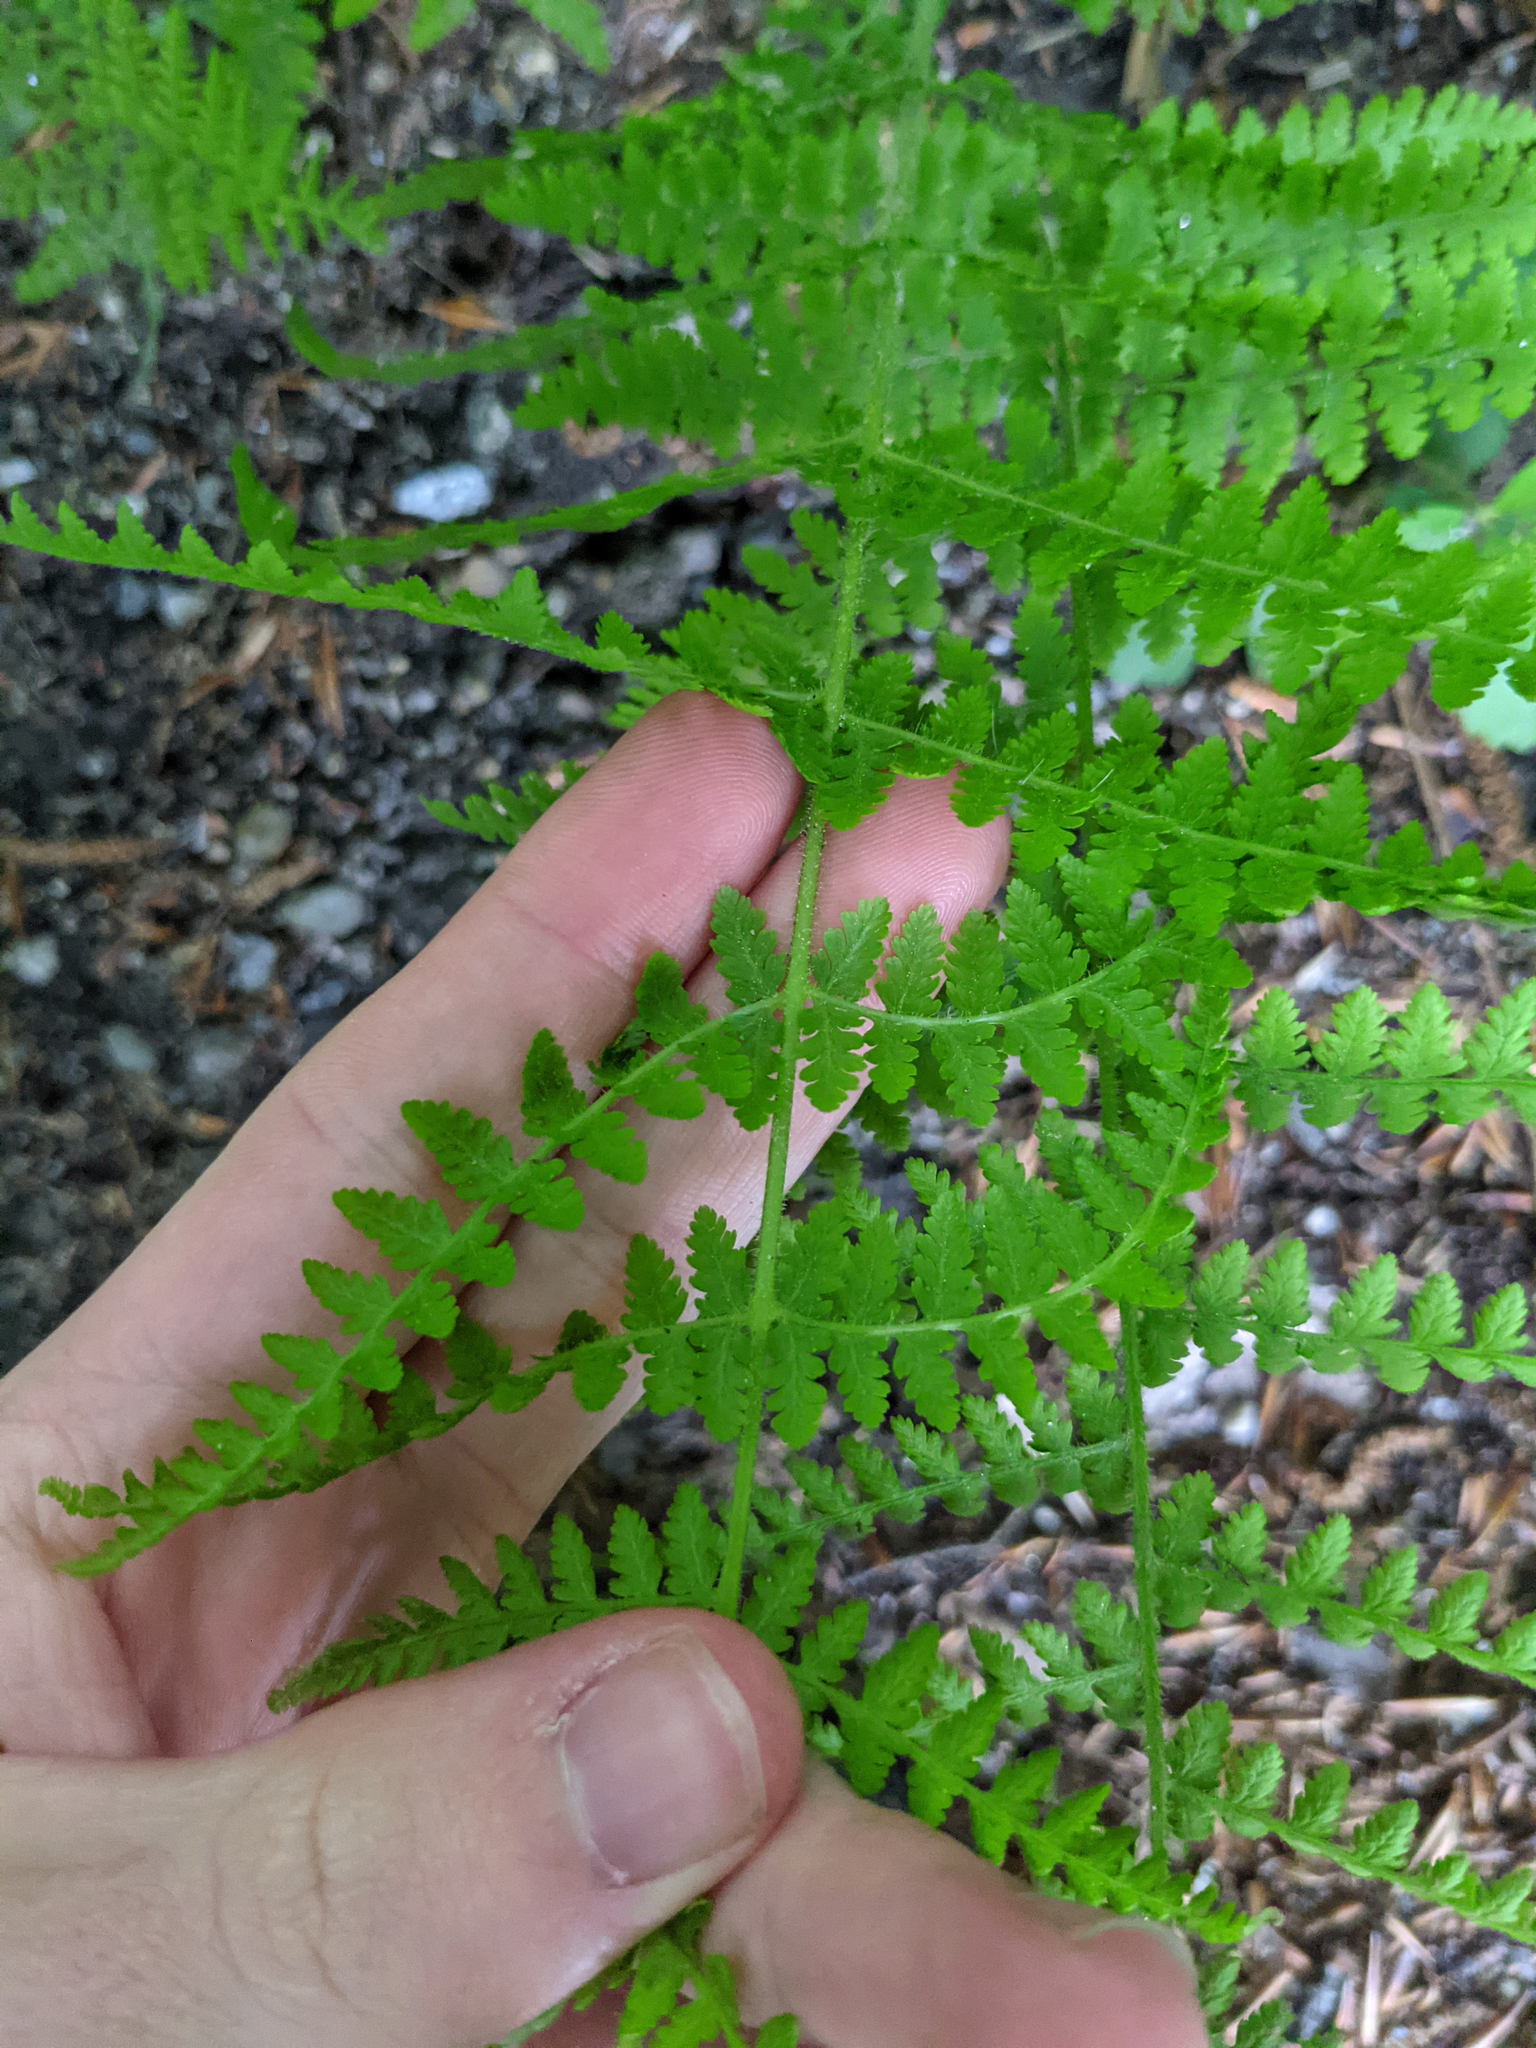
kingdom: Plantae
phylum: Tracheophyta
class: Polypodiopsida
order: Polypodiales
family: Dennstaedtiaceae
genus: Sitobolium
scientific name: Sitobolium punctilobum
